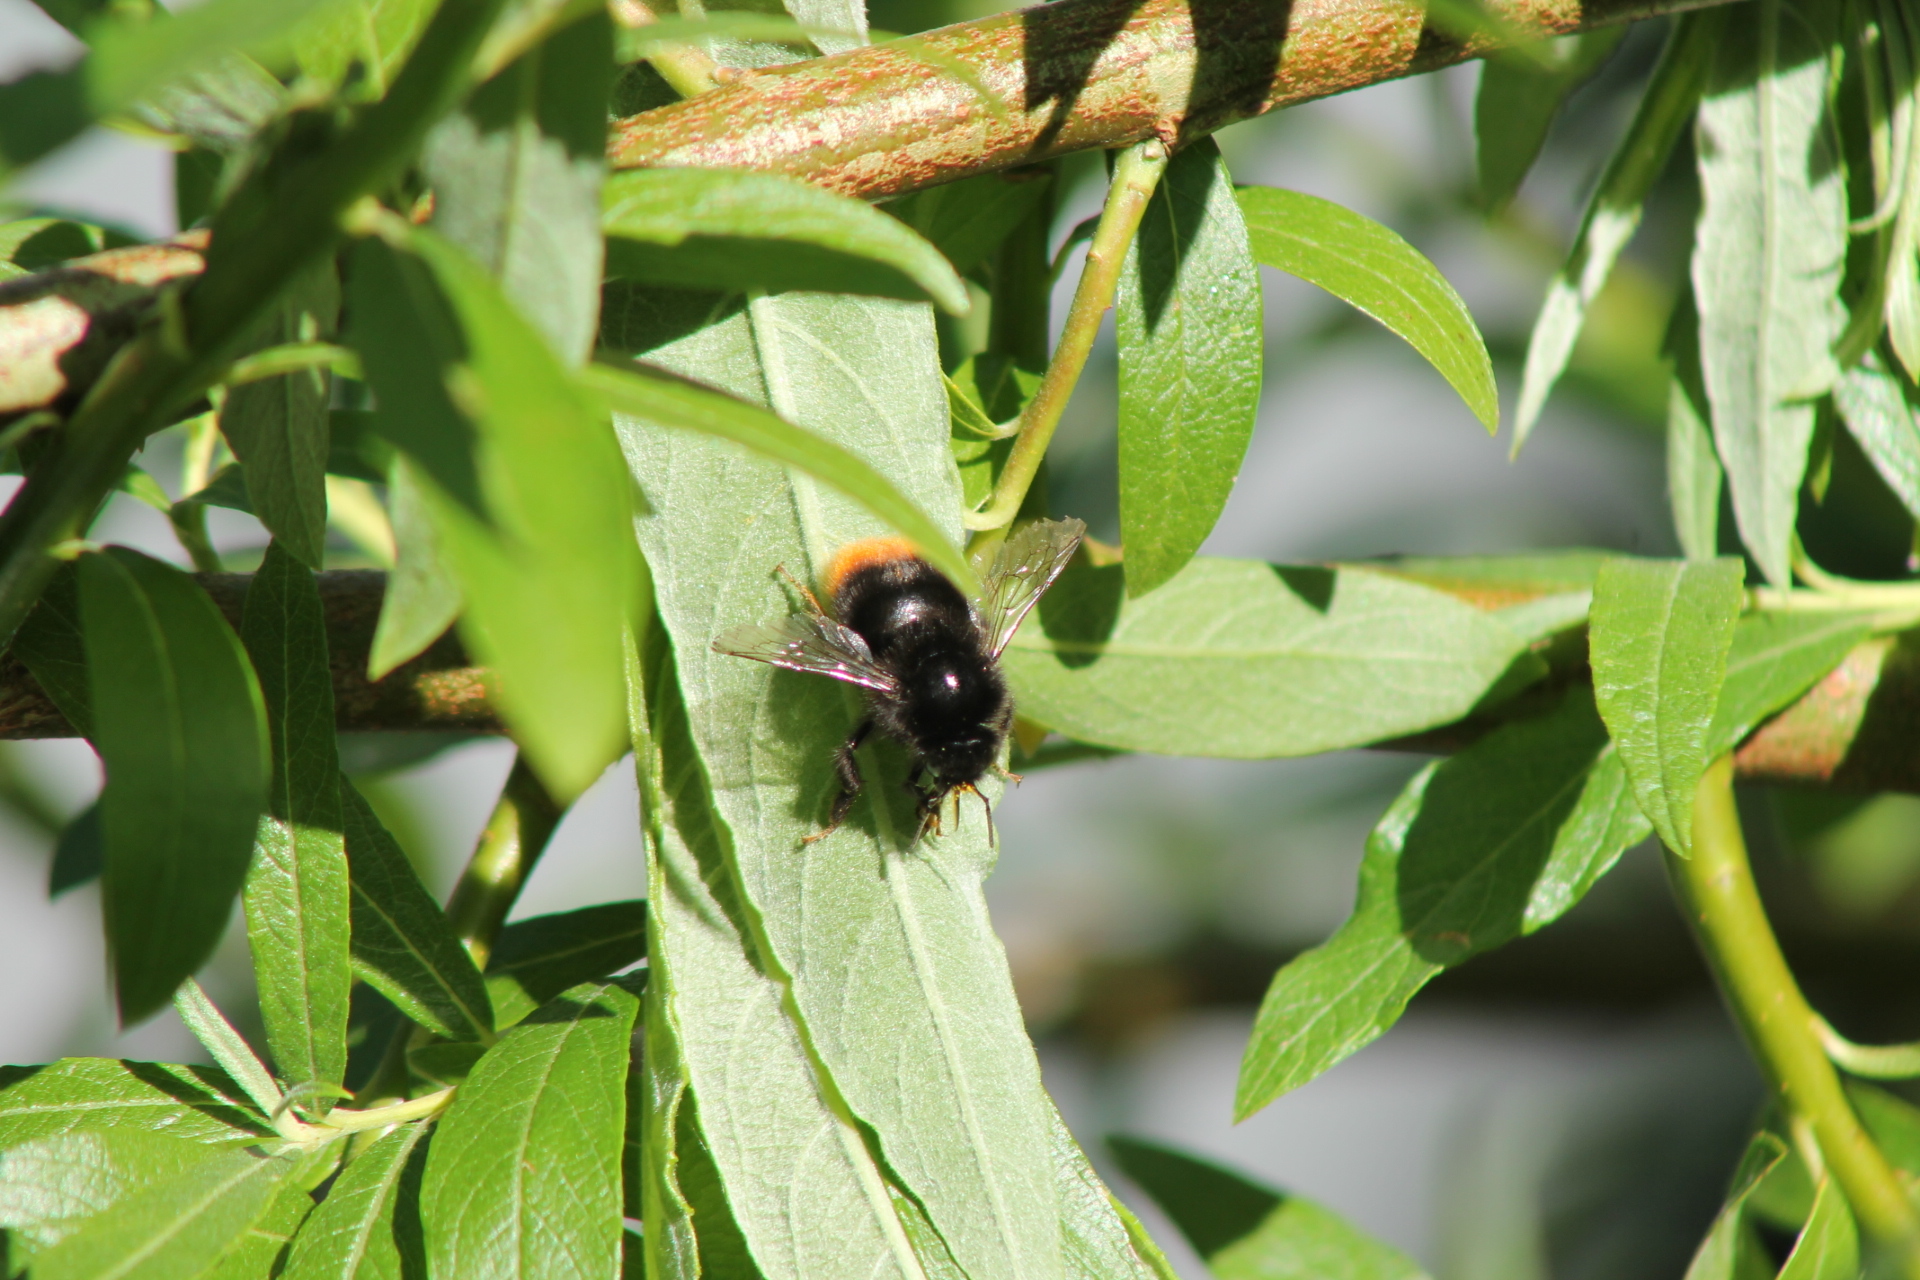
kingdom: Animalia
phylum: Arthropoda
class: Insecta
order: Hymenoptera
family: Apidae
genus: Bombus
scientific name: Bombus lapidarius
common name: Large red-tailed humble-bee
